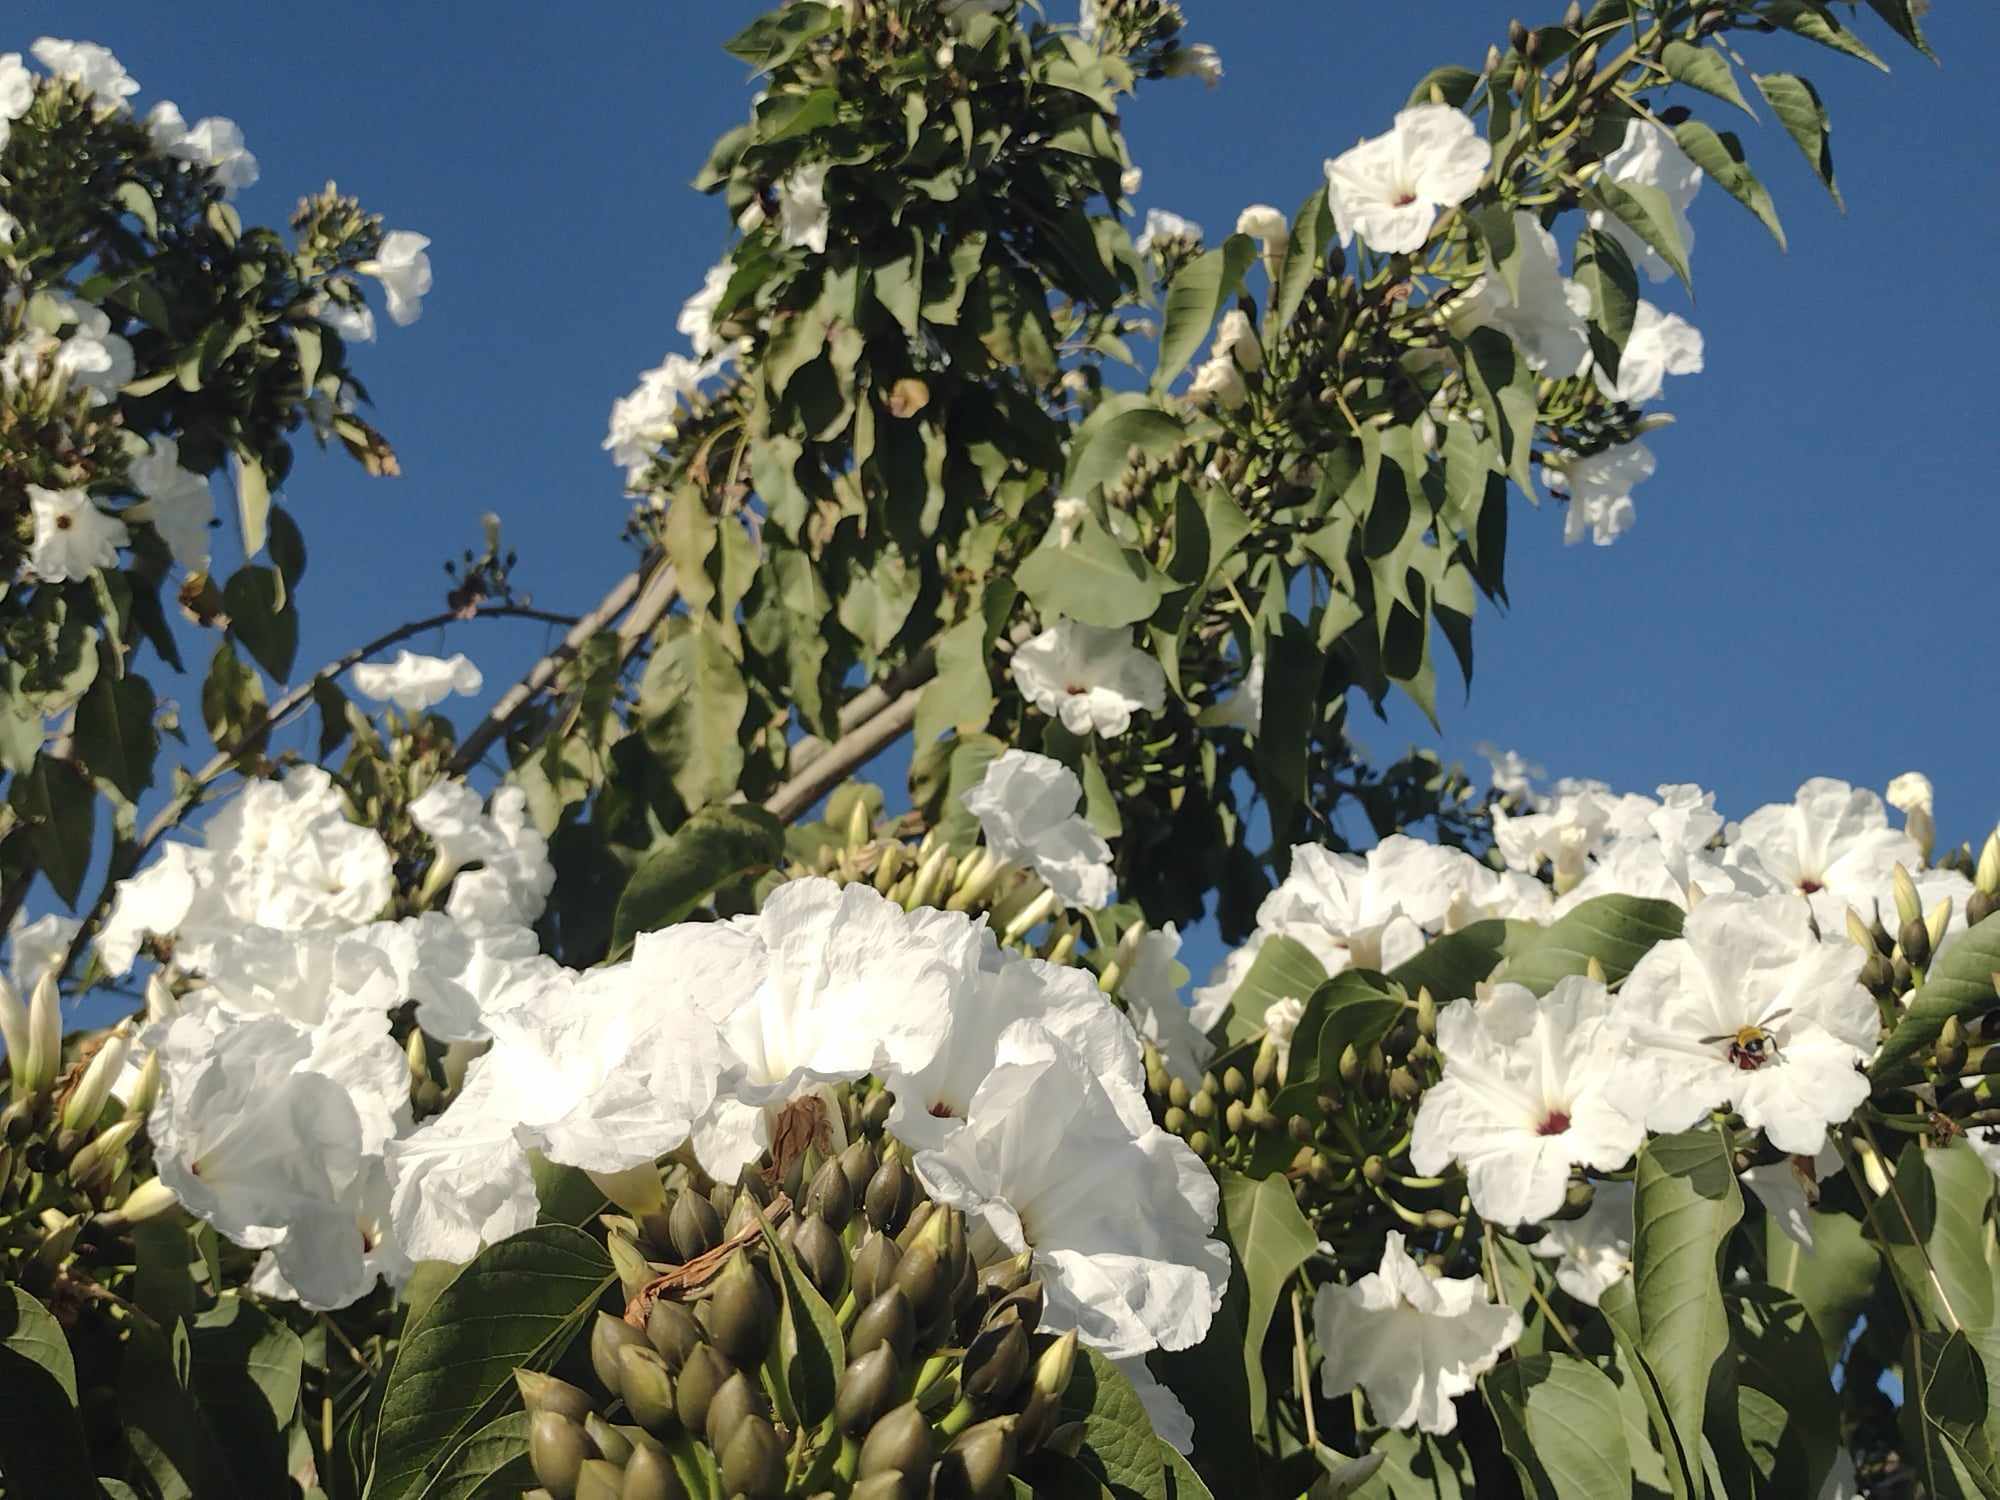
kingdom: Plantae
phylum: Tracheophyta
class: Magnoliopsida
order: Solanales
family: Convolvulaceae
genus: Ipomoea
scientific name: Ipomoea pauciflora
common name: Tree morningglory
